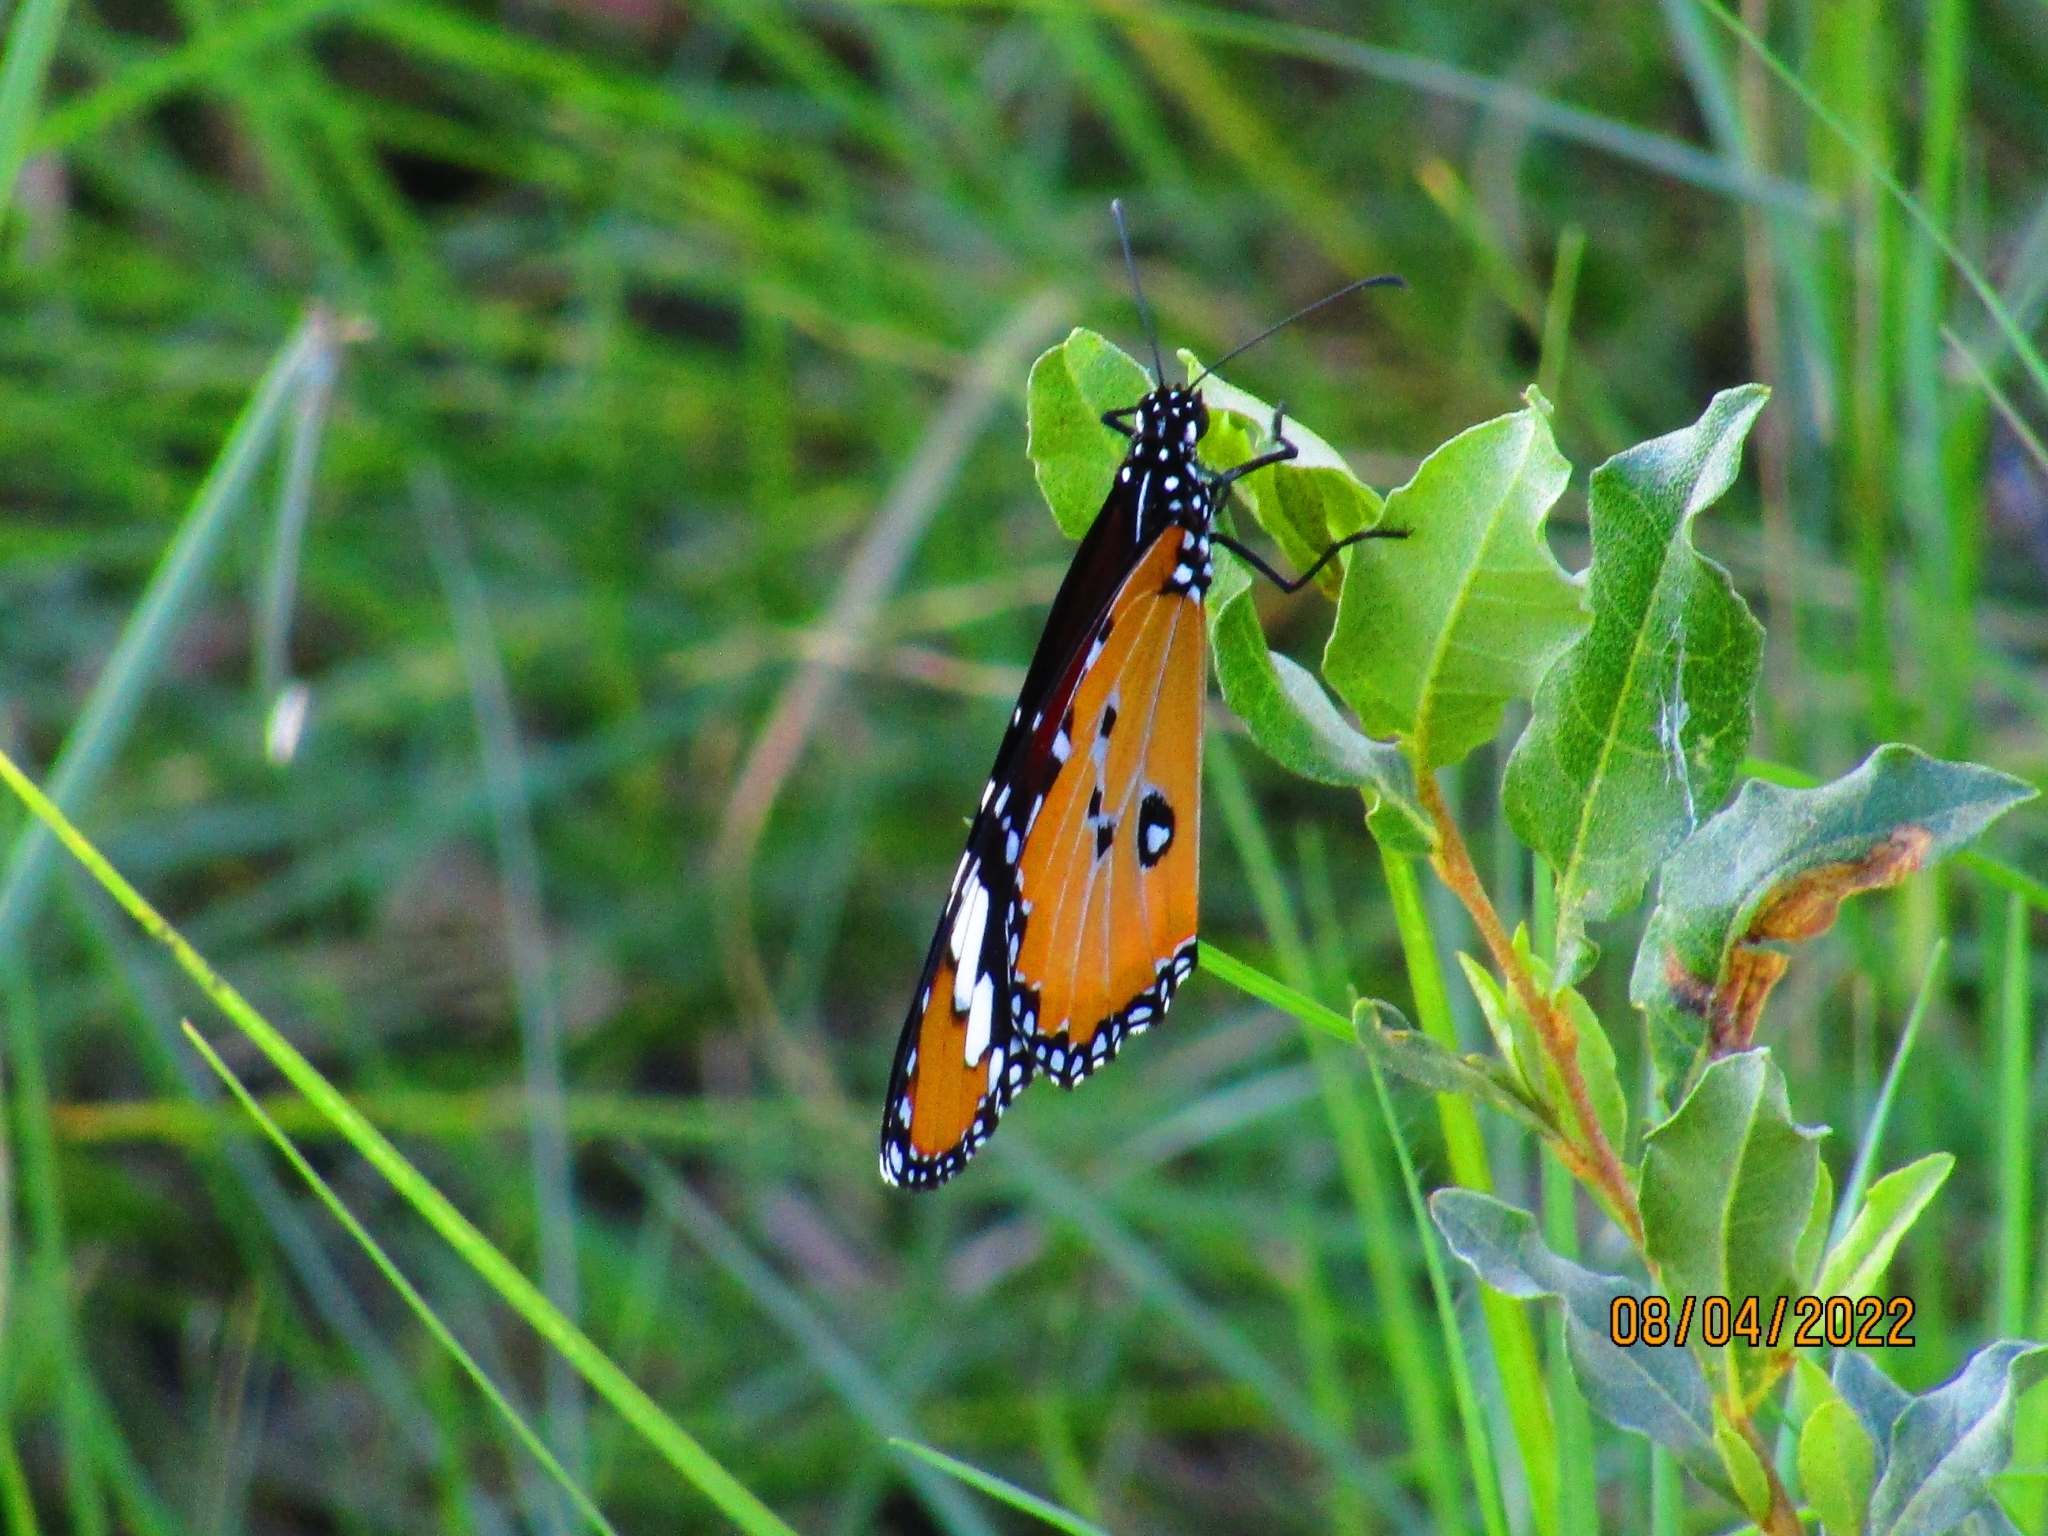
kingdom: Animalia
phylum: Arthropoda
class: Insecta
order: Lepidoptera
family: Nymphalidae
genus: Danaus
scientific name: Danaus chrysippus
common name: Plain tiger
